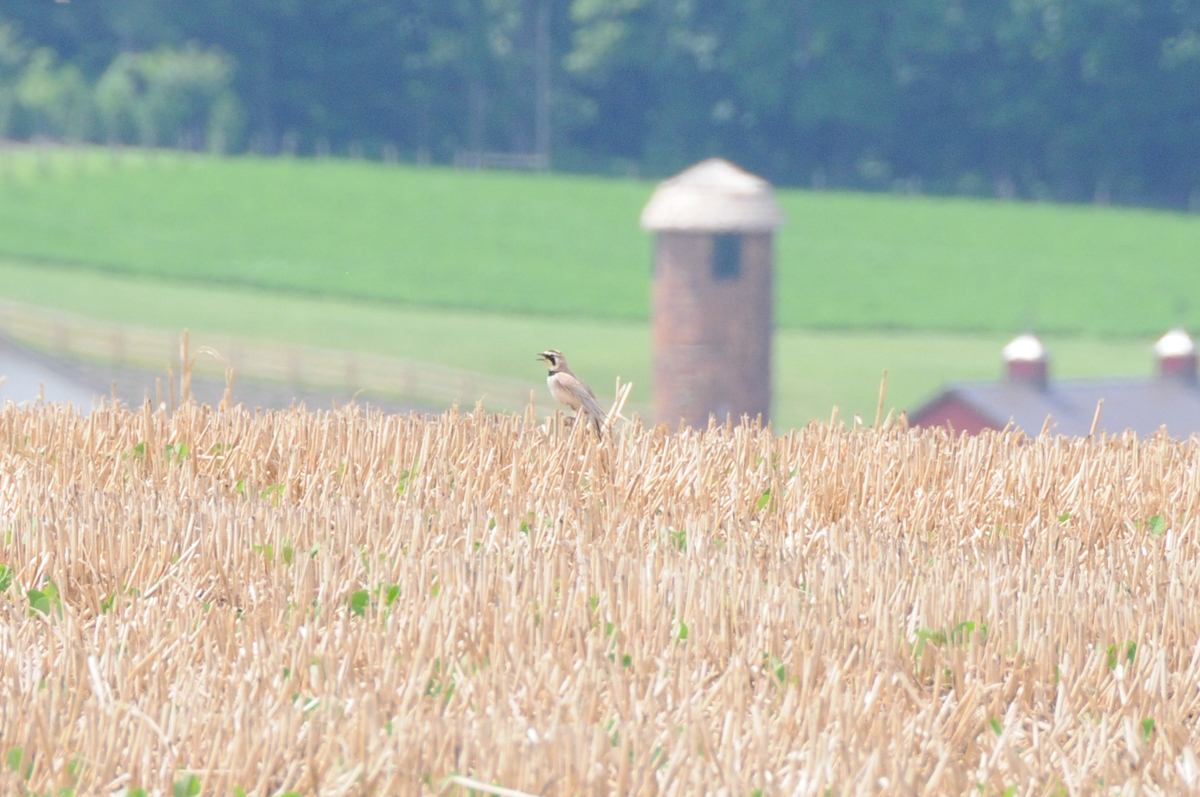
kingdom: Animalia
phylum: Chordata
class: Aves
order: Passeriformes
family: Alaudidae
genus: Eremophila
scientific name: Eremophila alpestris
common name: Horned lark
